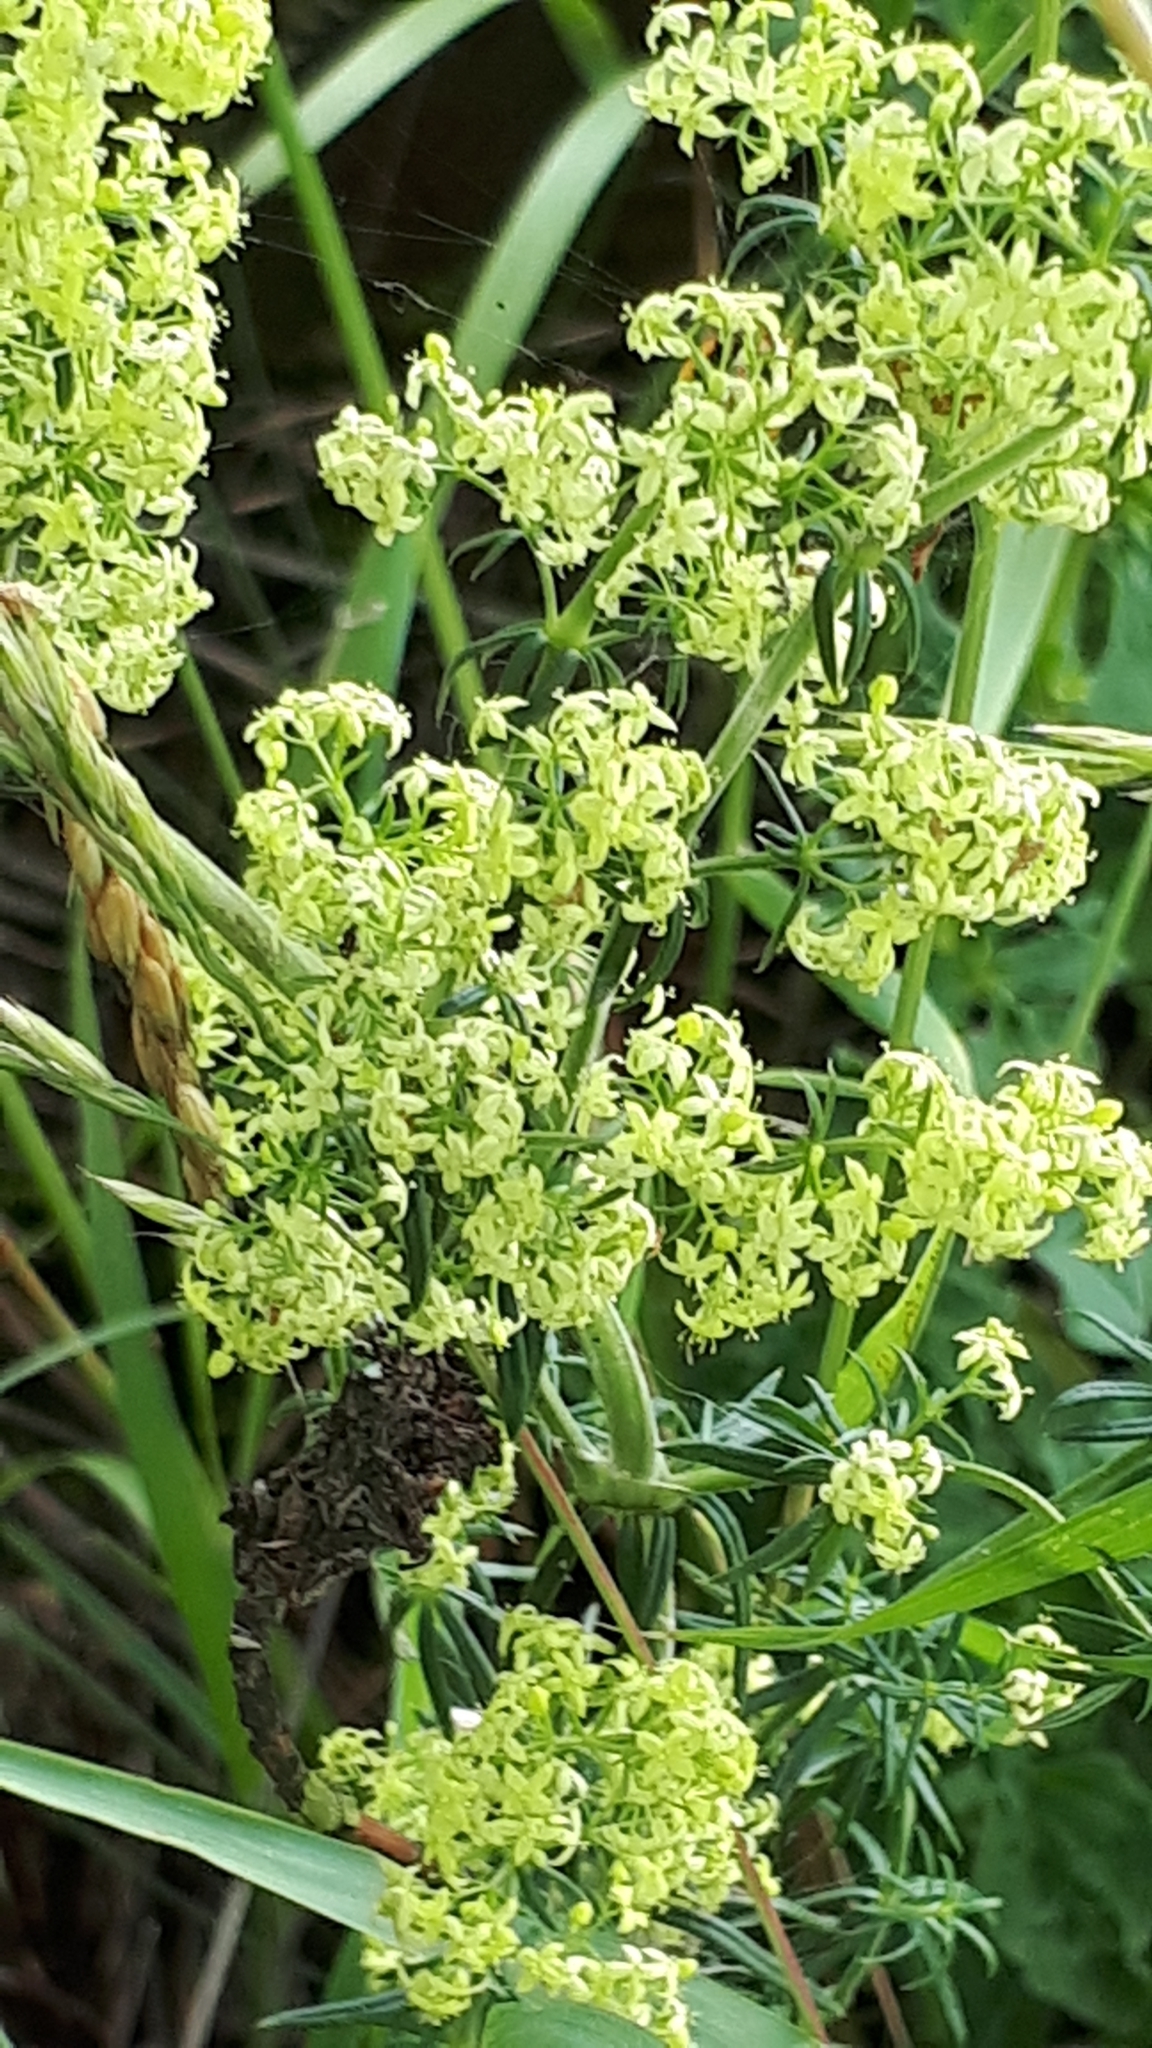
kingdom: Plantae
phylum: Tracheophyta
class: Magnoliopsida
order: Gentianales
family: Rubiaceae
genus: Galium
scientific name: Galium pomeranicum
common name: Bedstraw
